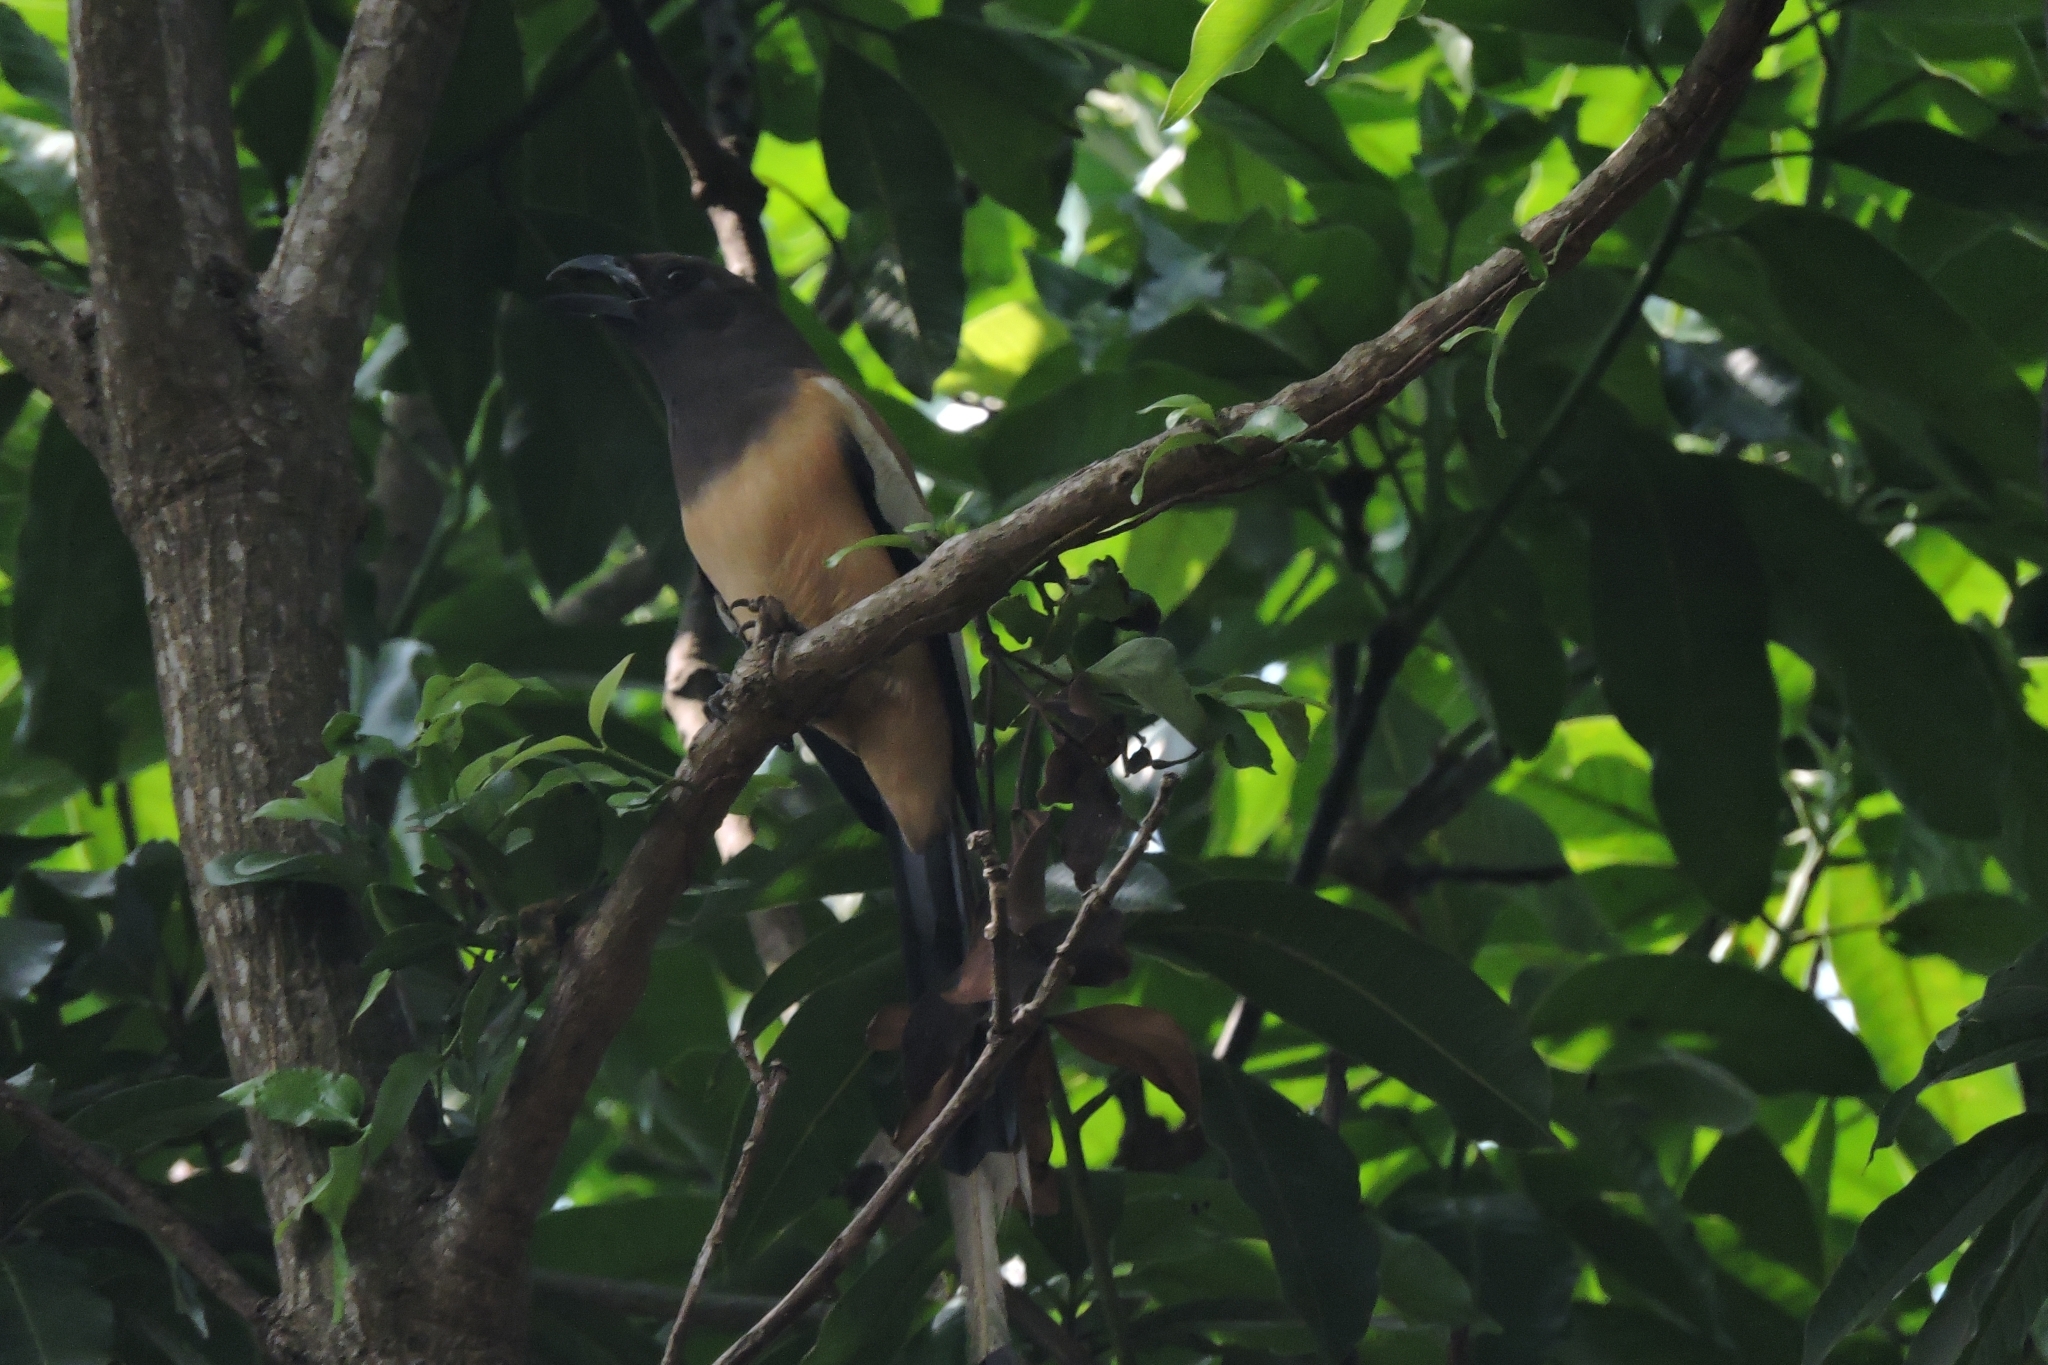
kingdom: Animalia
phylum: Chordata
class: Aves
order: Passeriformes
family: Corvidae
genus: Dendrocitta
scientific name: Dendrocitta vagabunda
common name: Rufous treepie
